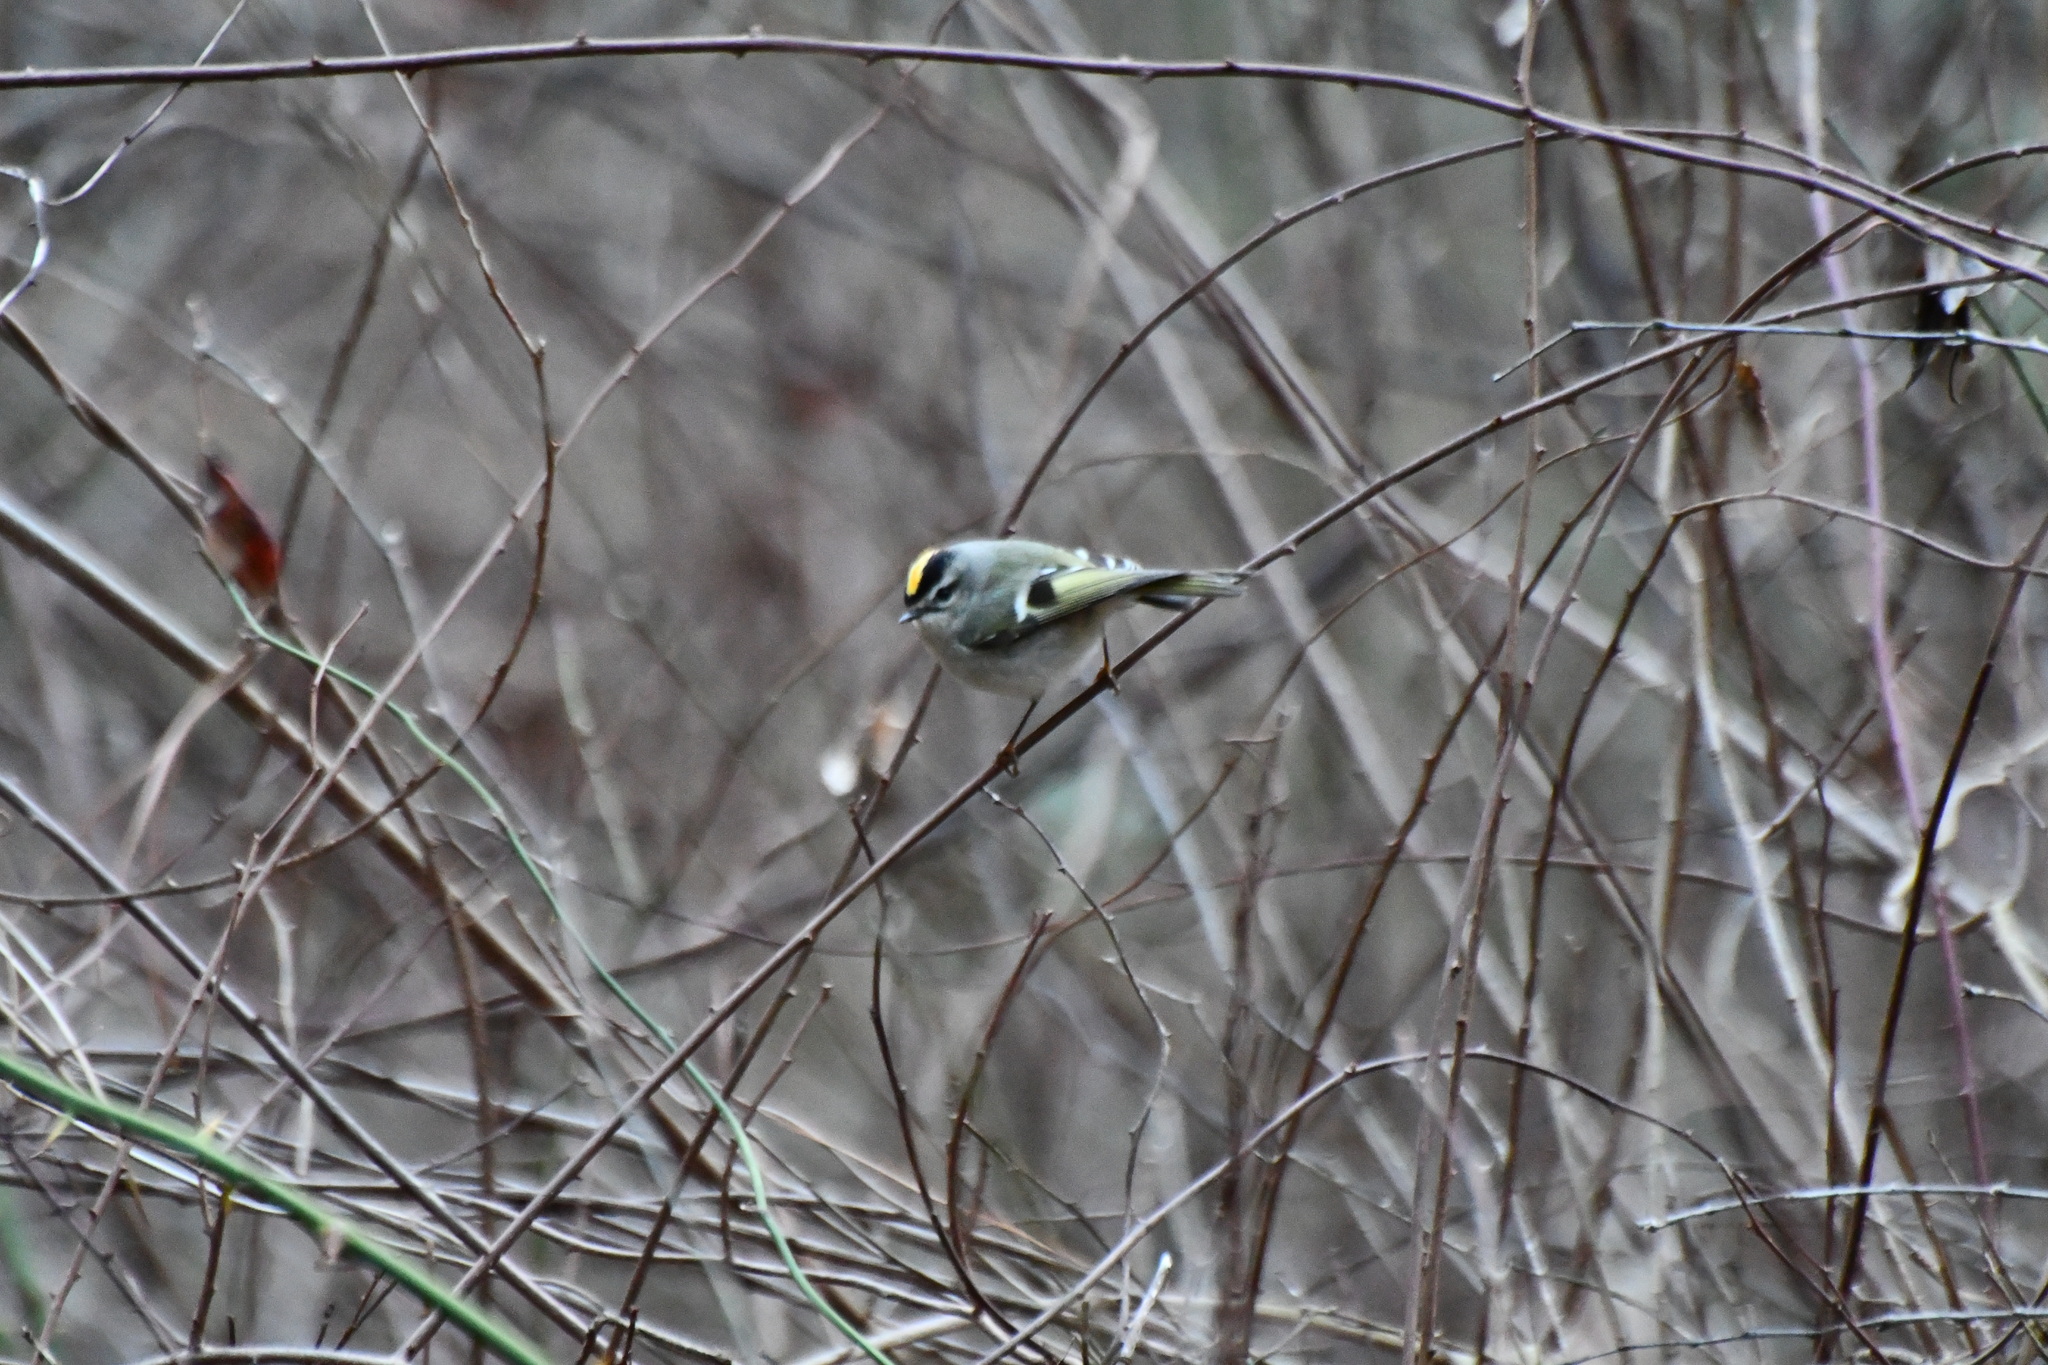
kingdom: Animalia
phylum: Chordata
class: Aves
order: Passeriformes
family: Regulidae
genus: Regulus
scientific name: Regulus satrapa
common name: Golden-crowned kinglet
